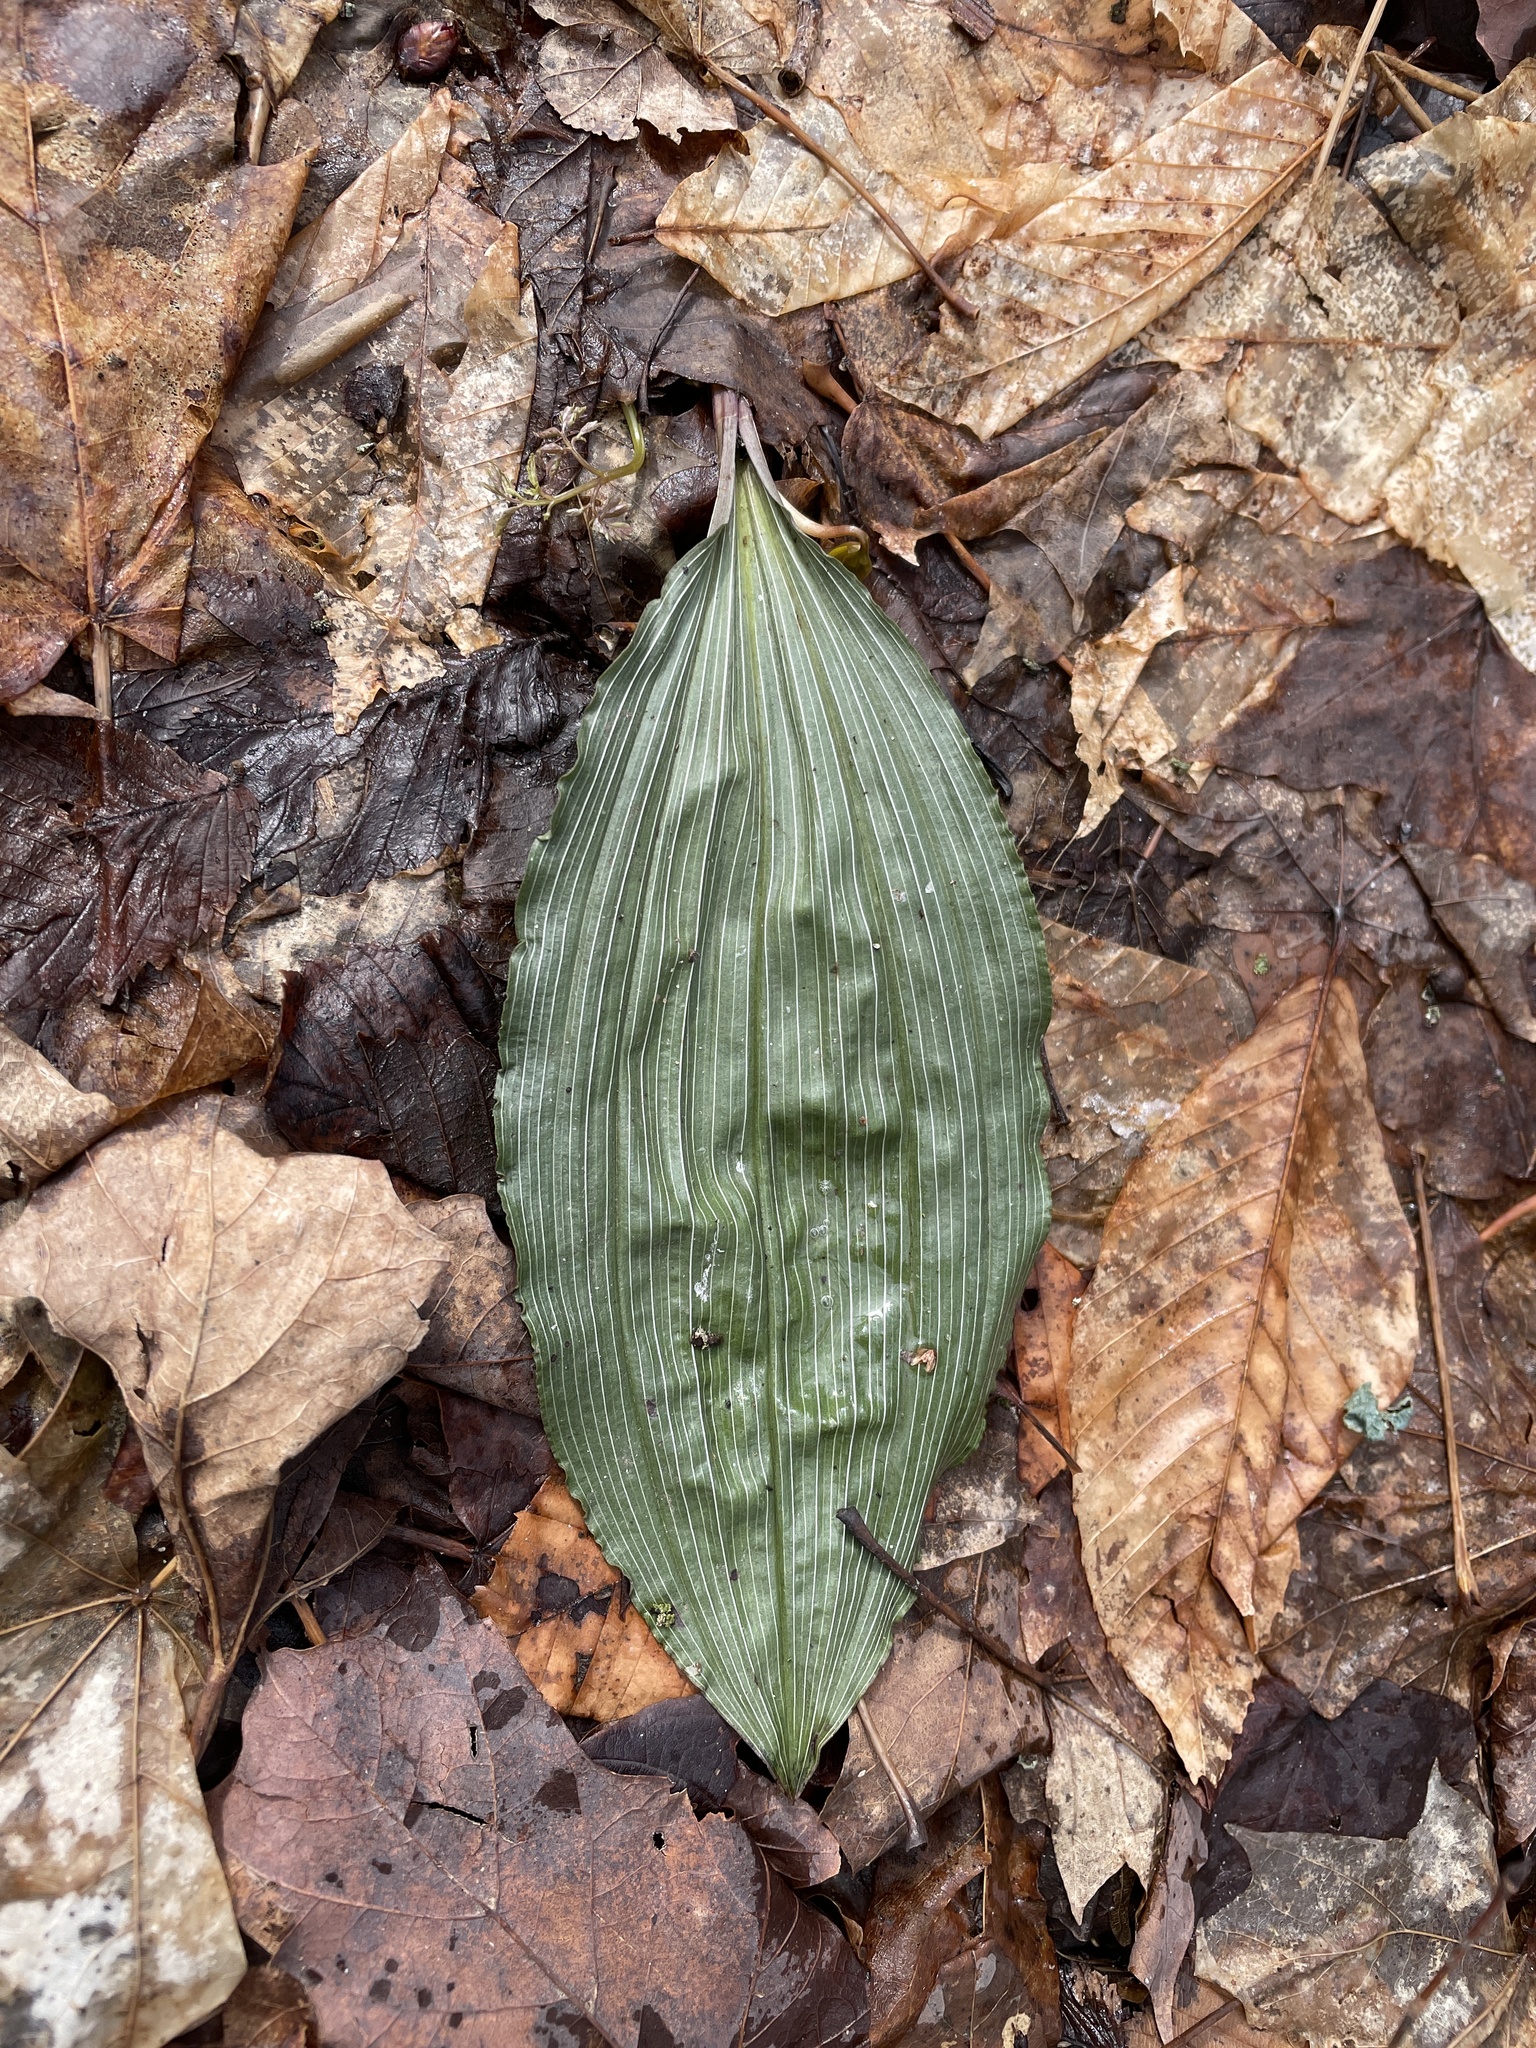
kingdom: Plantae
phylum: Tracheophyta
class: Liliopsida
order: Asparagales
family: Orchidaceae
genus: Aplectrum
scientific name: Aplectrum hyemale
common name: Adam-and-eve
